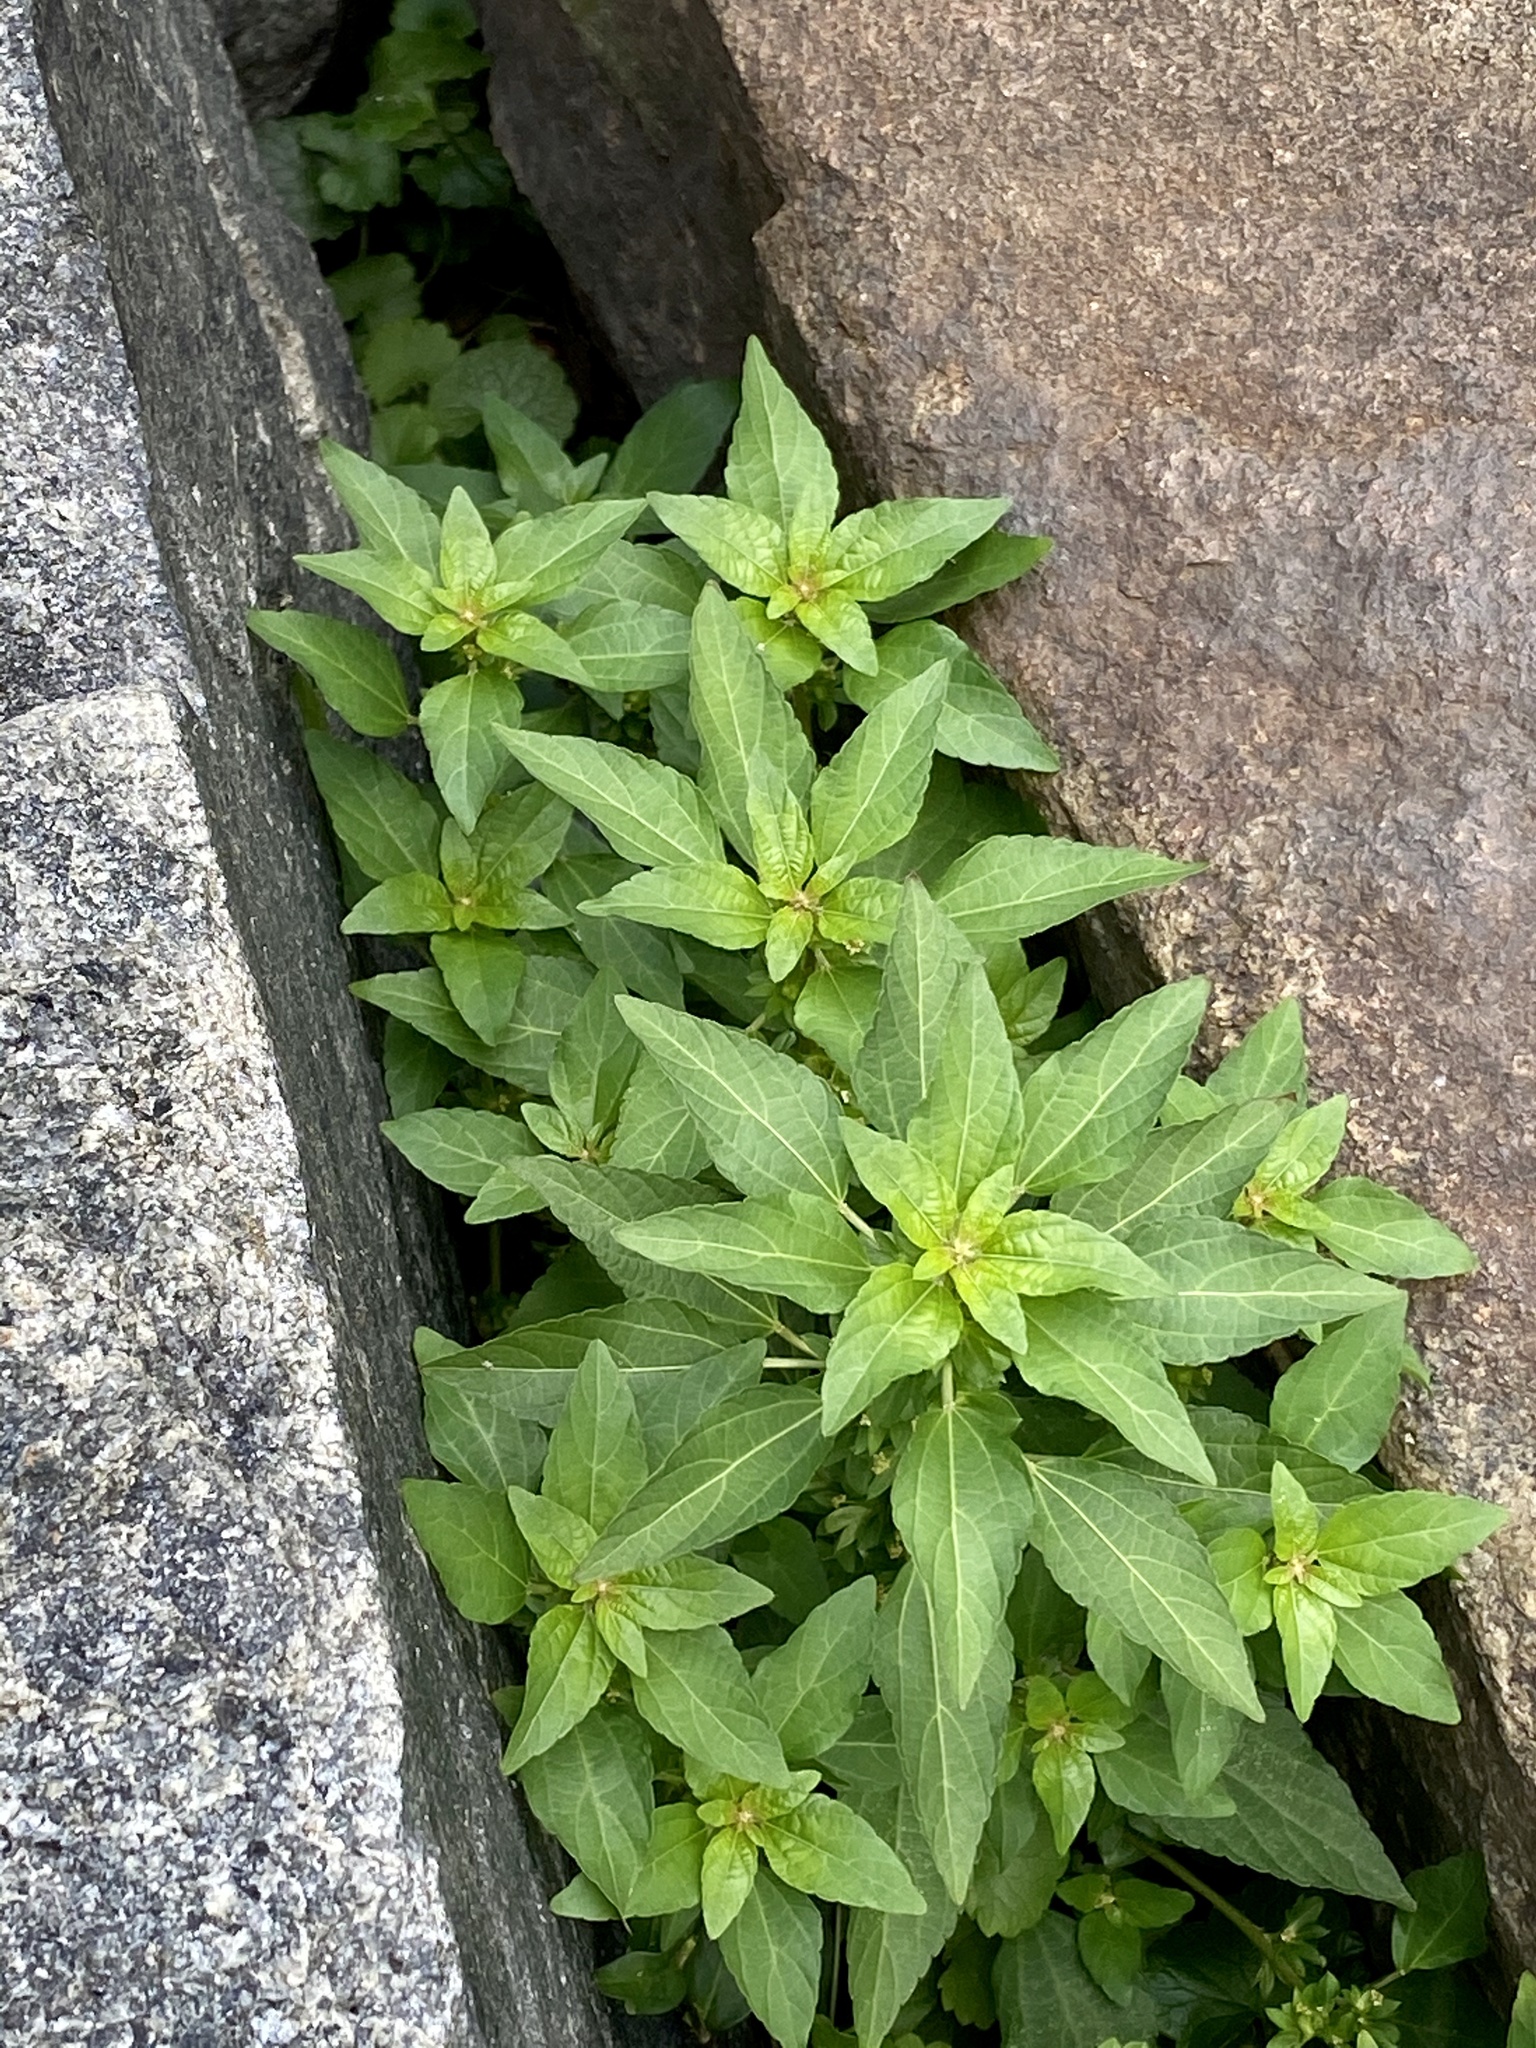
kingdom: Plantae
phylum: Tracheophyta
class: Magnoliopsida
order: Malpighiales
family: Euphorbiaceae
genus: Acalypha
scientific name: Acalypha rhomboidea
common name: Rhombic copperleaf
